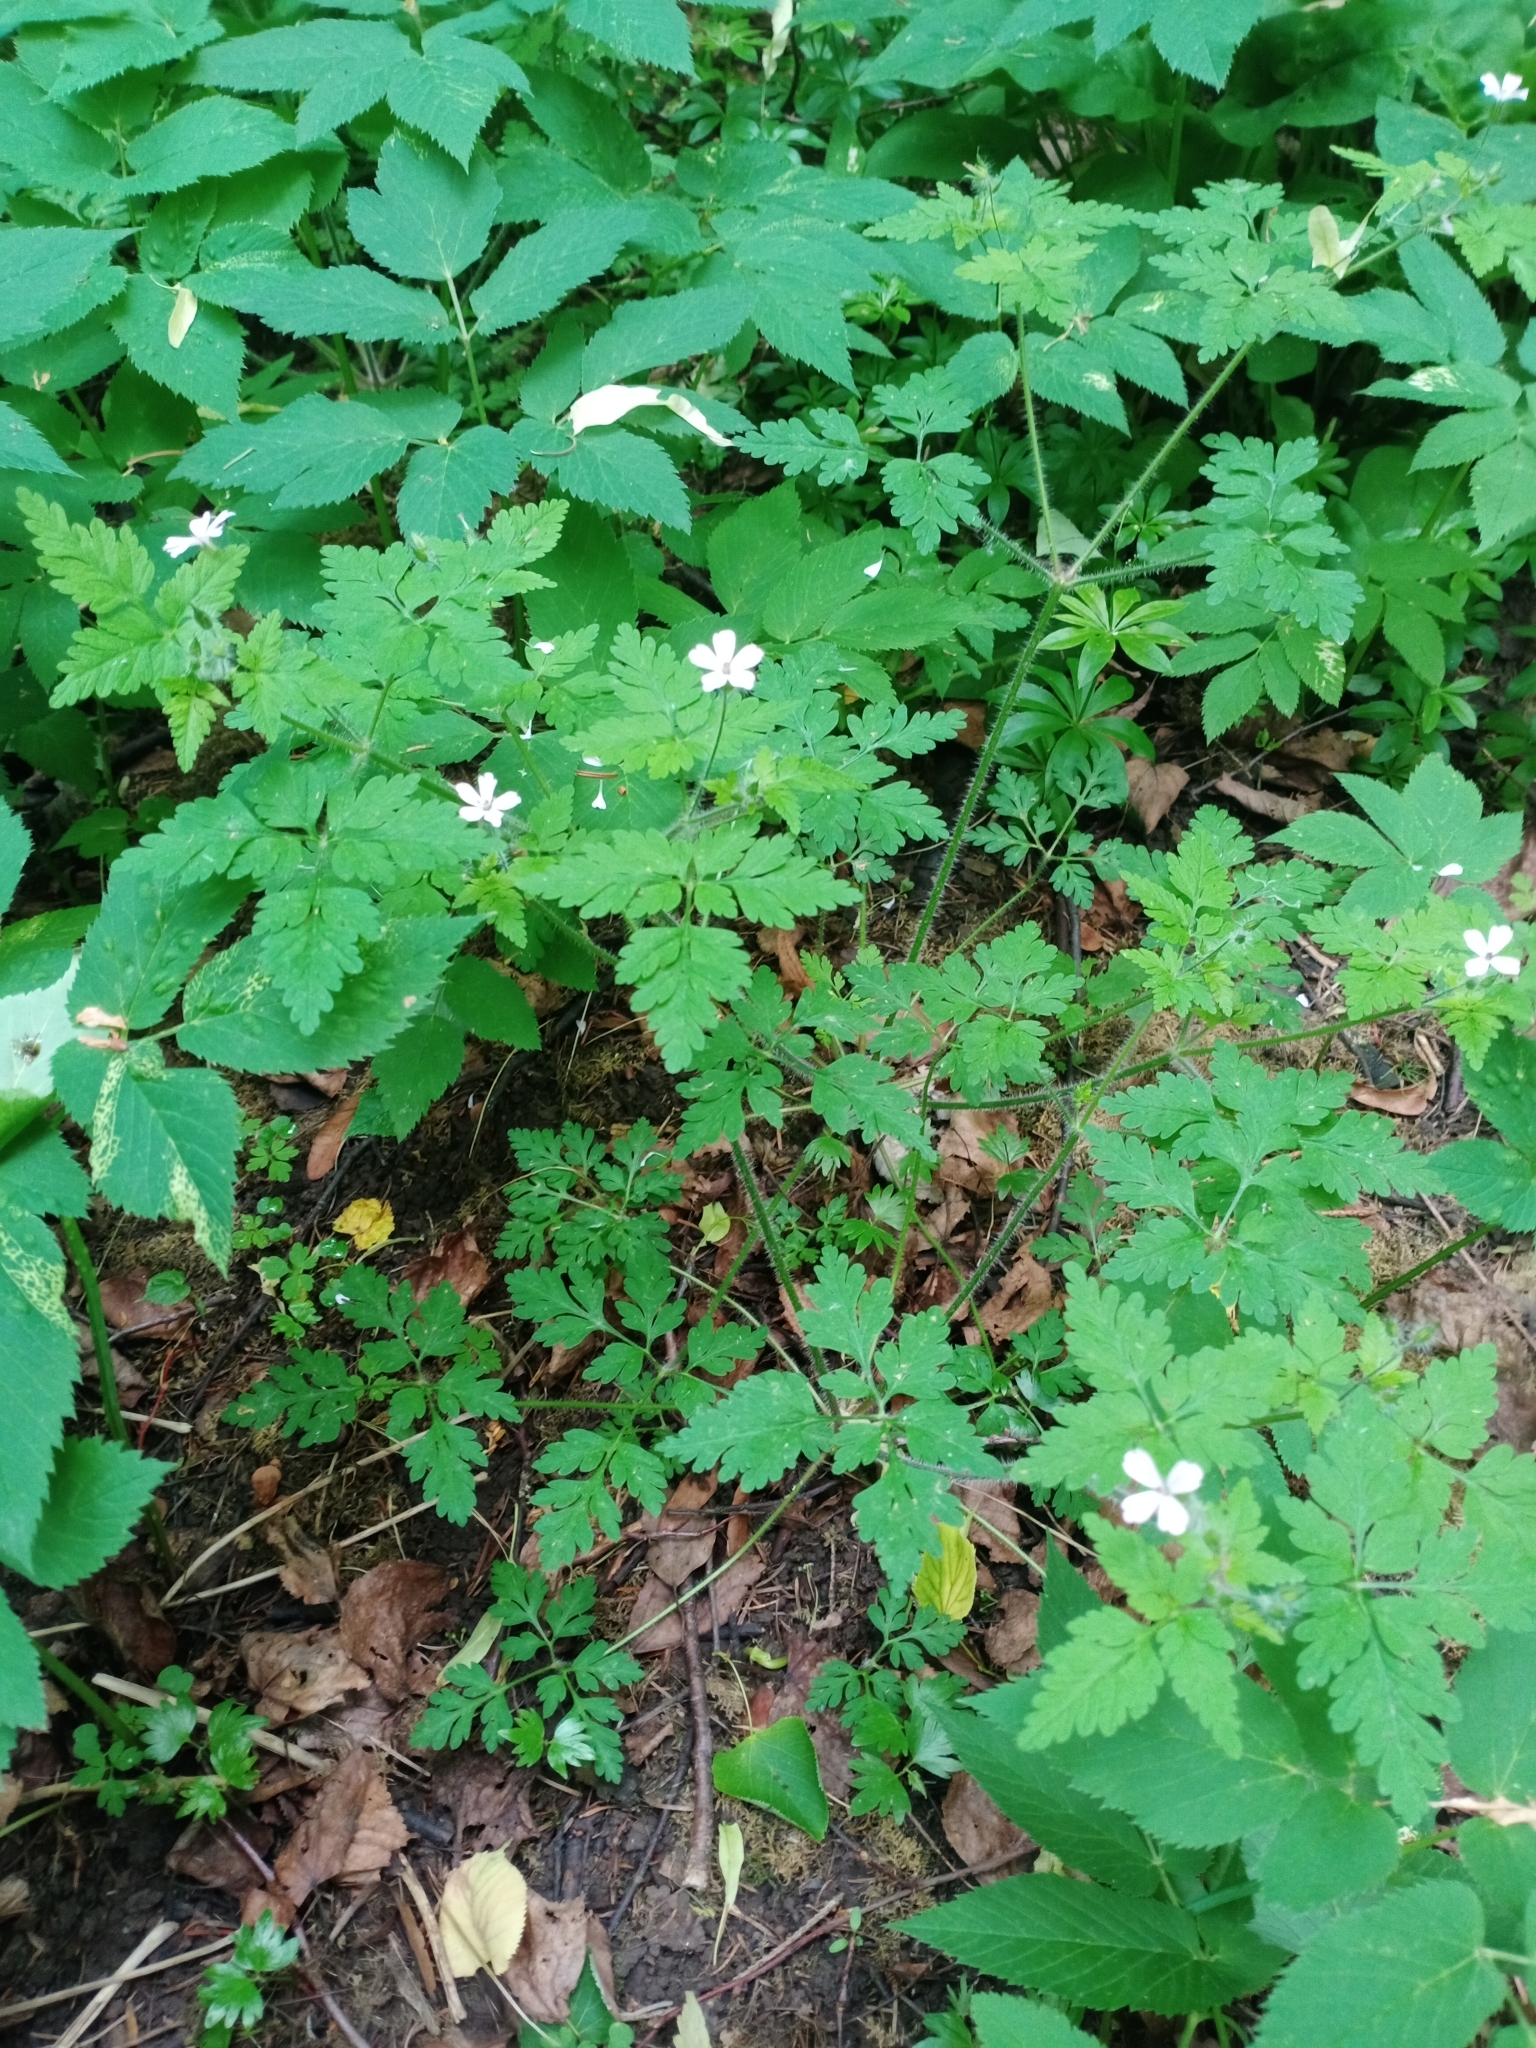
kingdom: Plantae
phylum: Tracheophyta
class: Magnoliopsida
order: Geraniales
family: Geraniaceae
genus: Geranium
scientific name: Geranium robertianum
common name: Herb-robert
